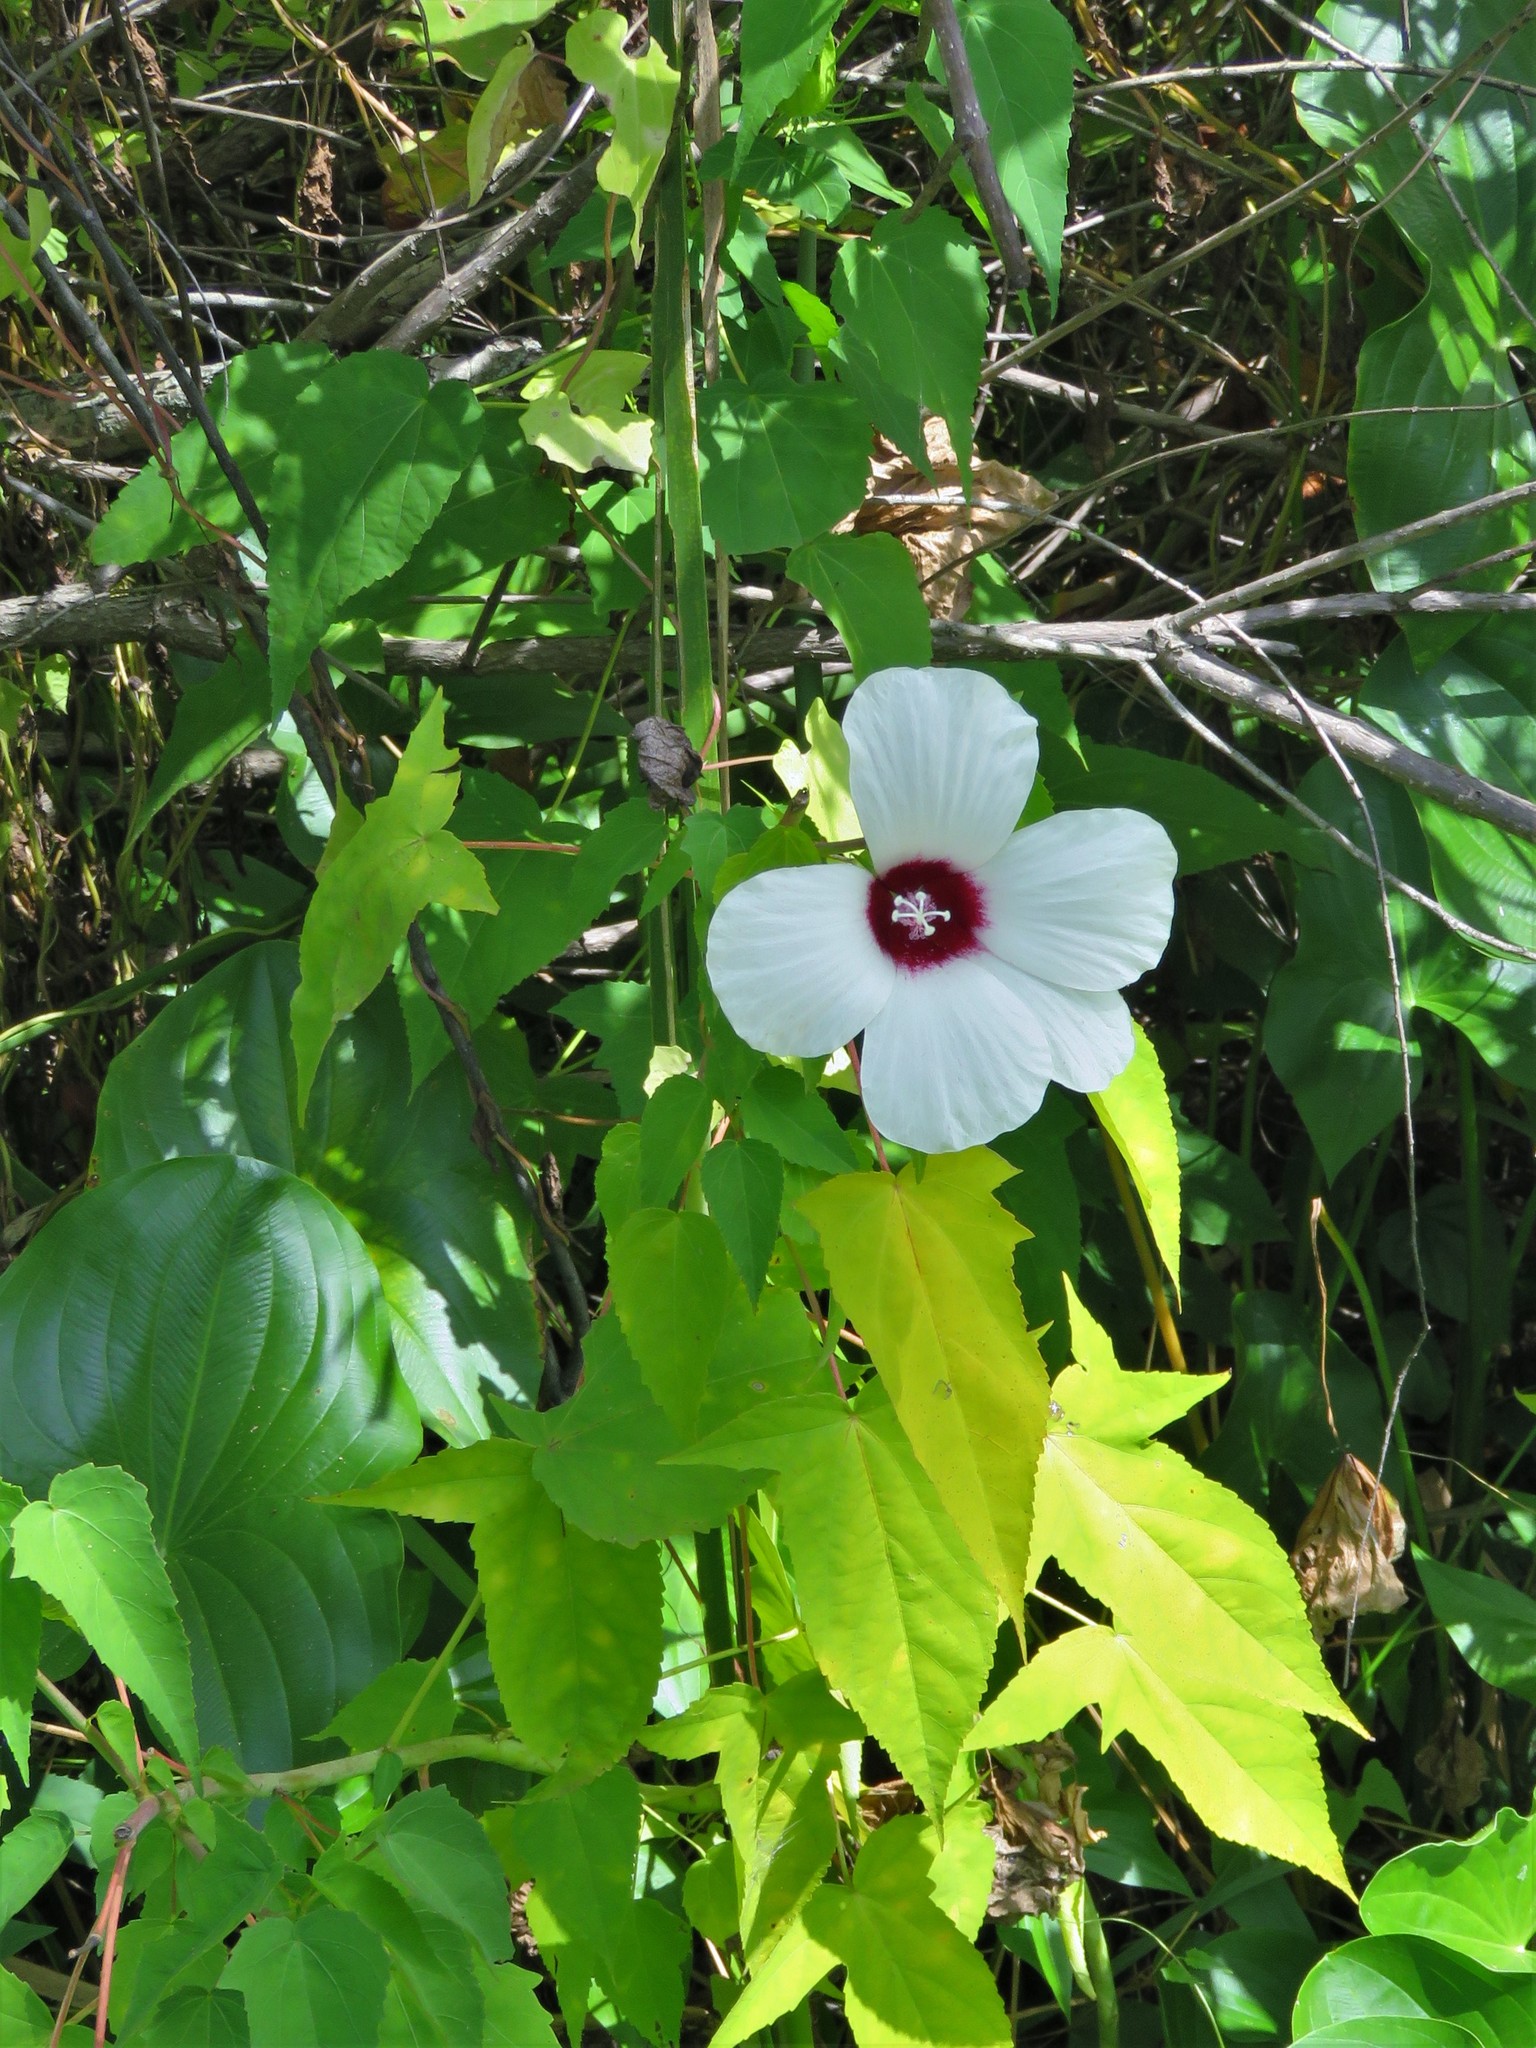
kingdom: Plantae
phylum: Tracheophyta
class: Magnoliopsida
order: Malvales
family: Malvaceae
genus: Hibiscus
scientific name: Hibiscus laevis
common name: Scarlet rose-mallow
